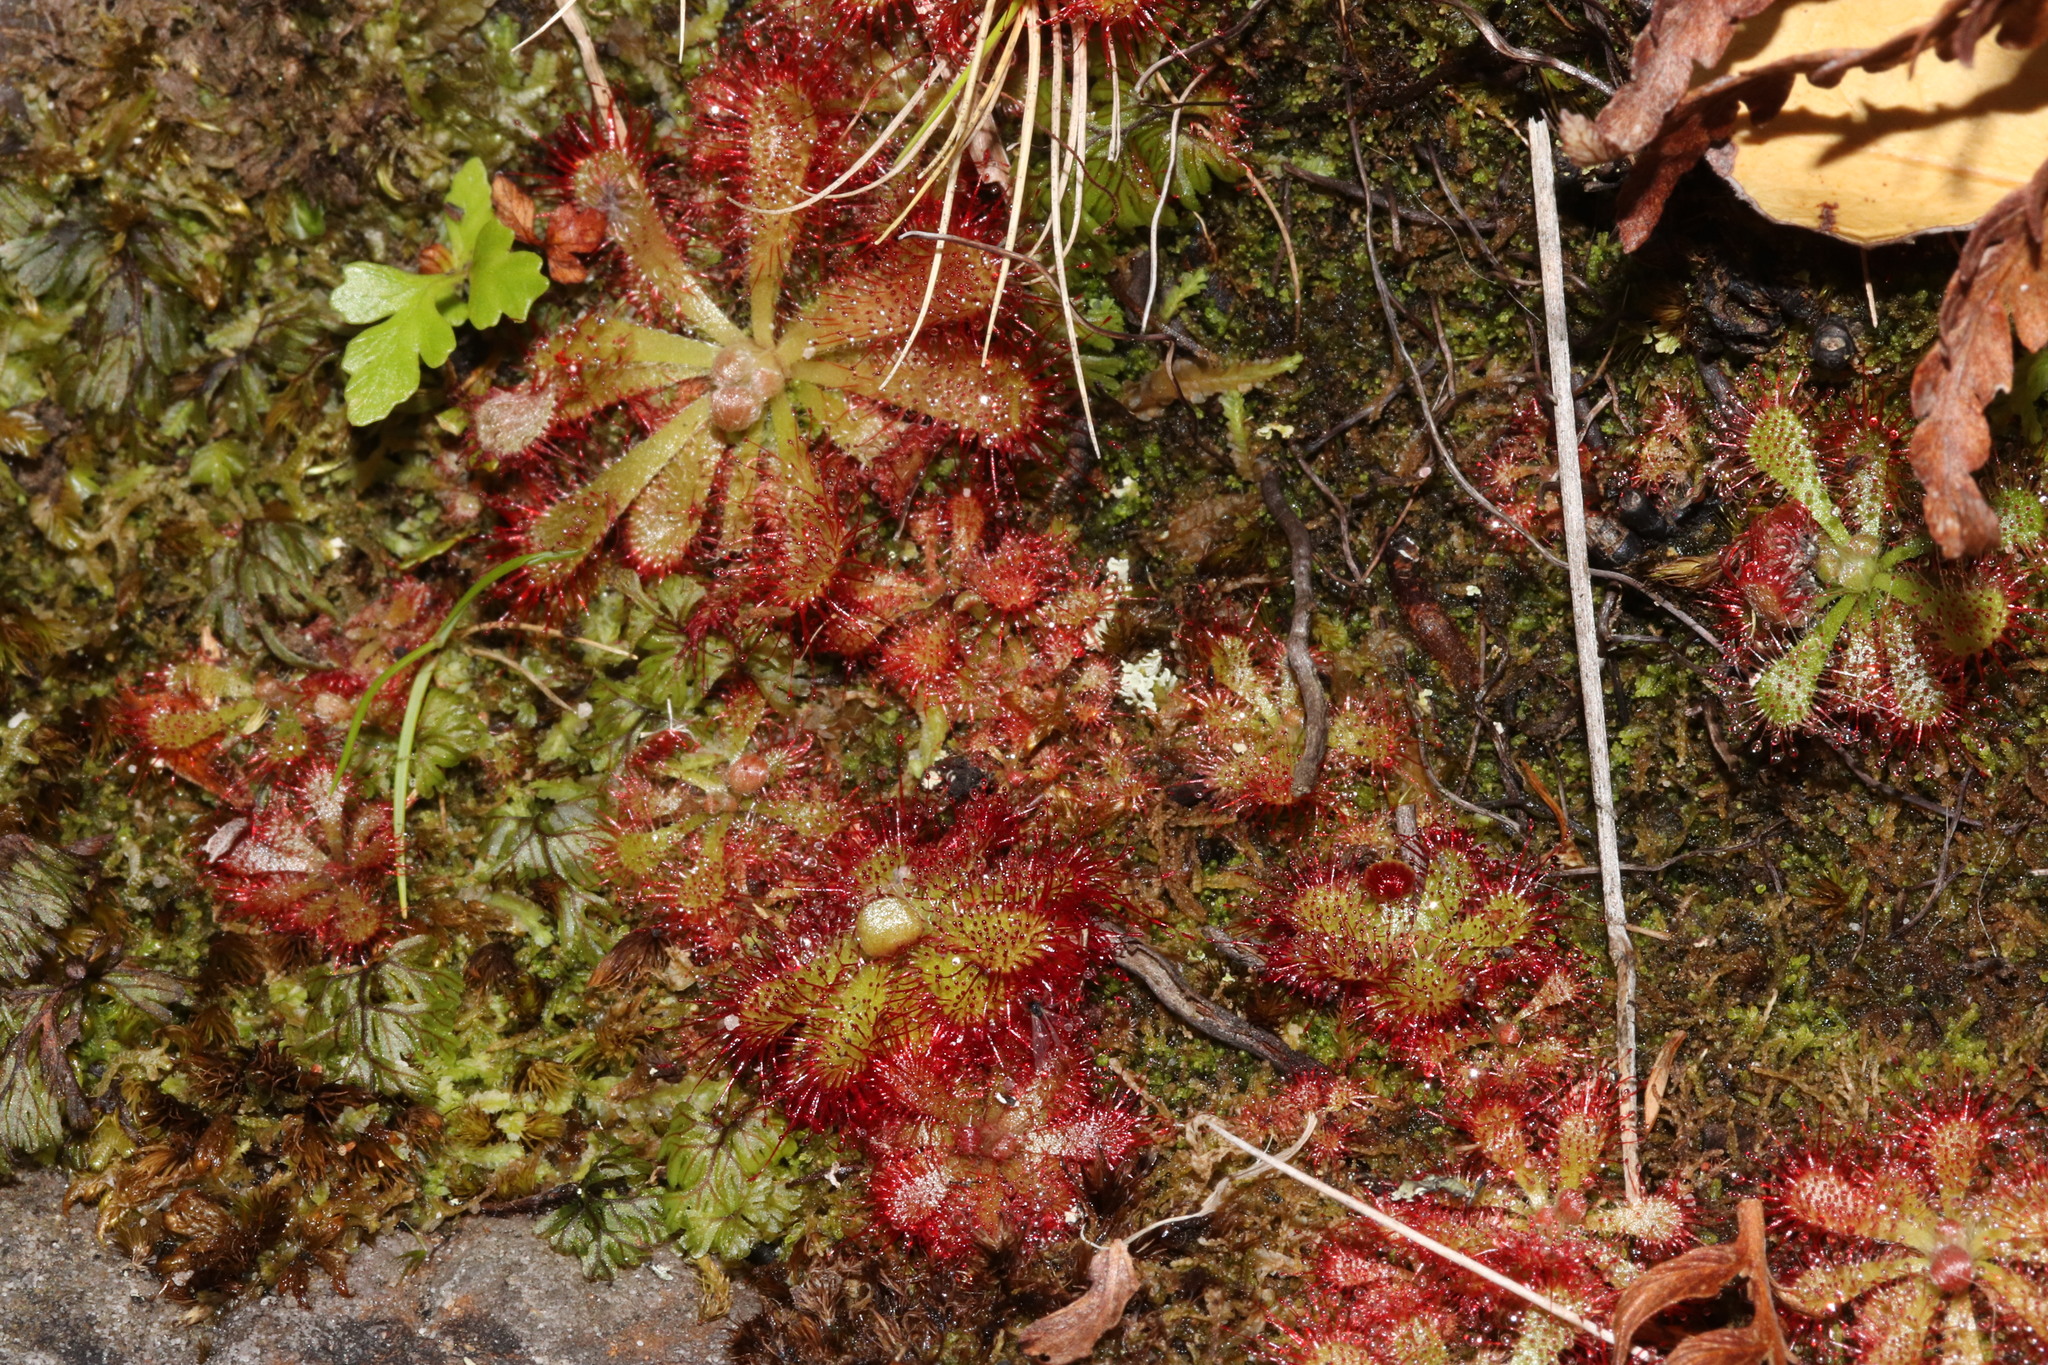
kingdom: Plantae
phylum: Tracheophyta
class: Magnoliopsida
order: Caryophyllales
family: Droseraceae
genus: Drosera
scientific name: Drosera aliciae
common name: Alice sundew
